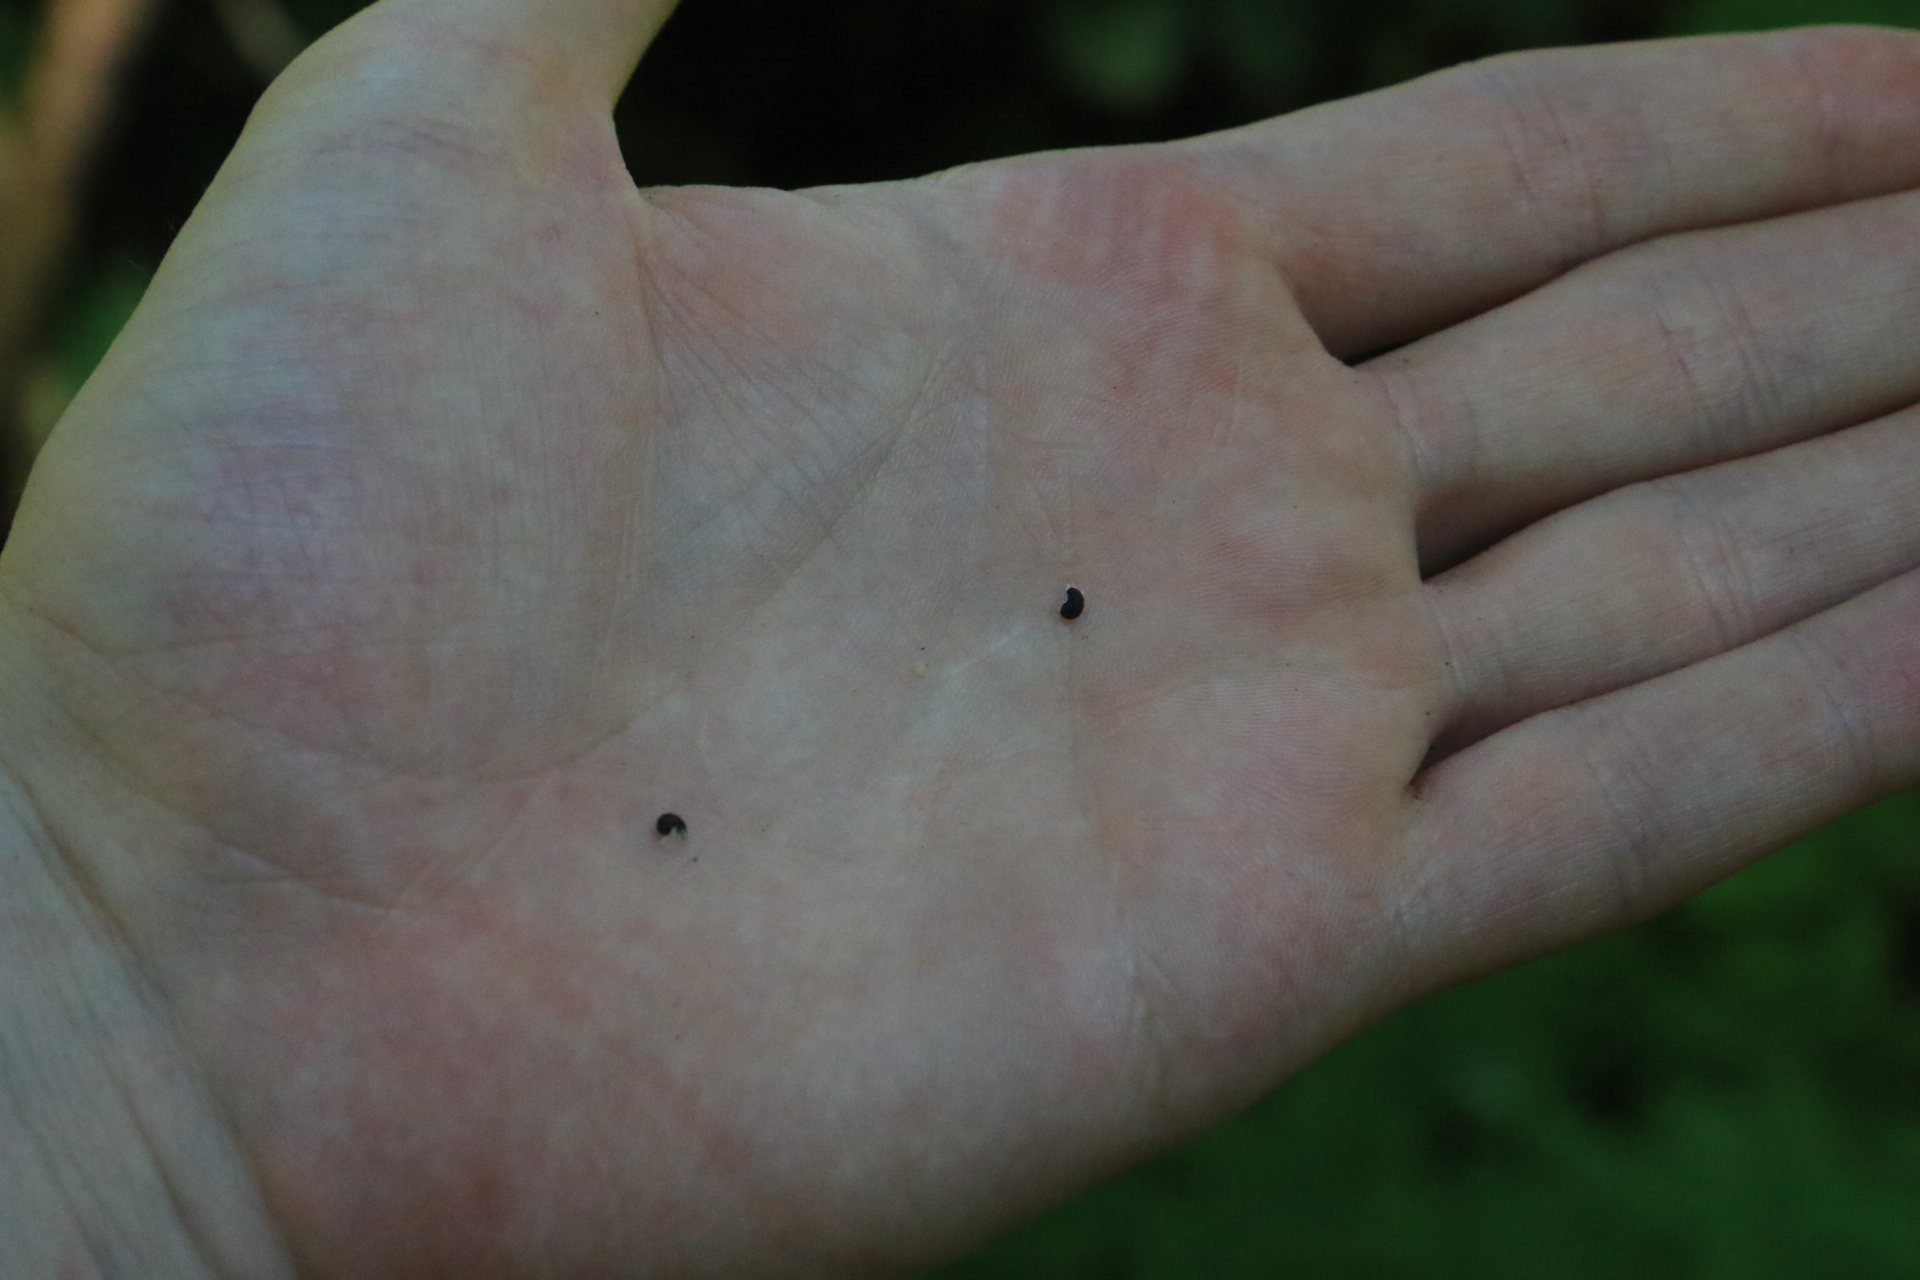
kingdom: Plantae
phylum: Tracheophyta
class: Magnoliopsida
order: Ranunculales
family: Papaveraceae
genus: Dicentra
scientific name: Dicentra formosa
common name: Bleeding-heart
